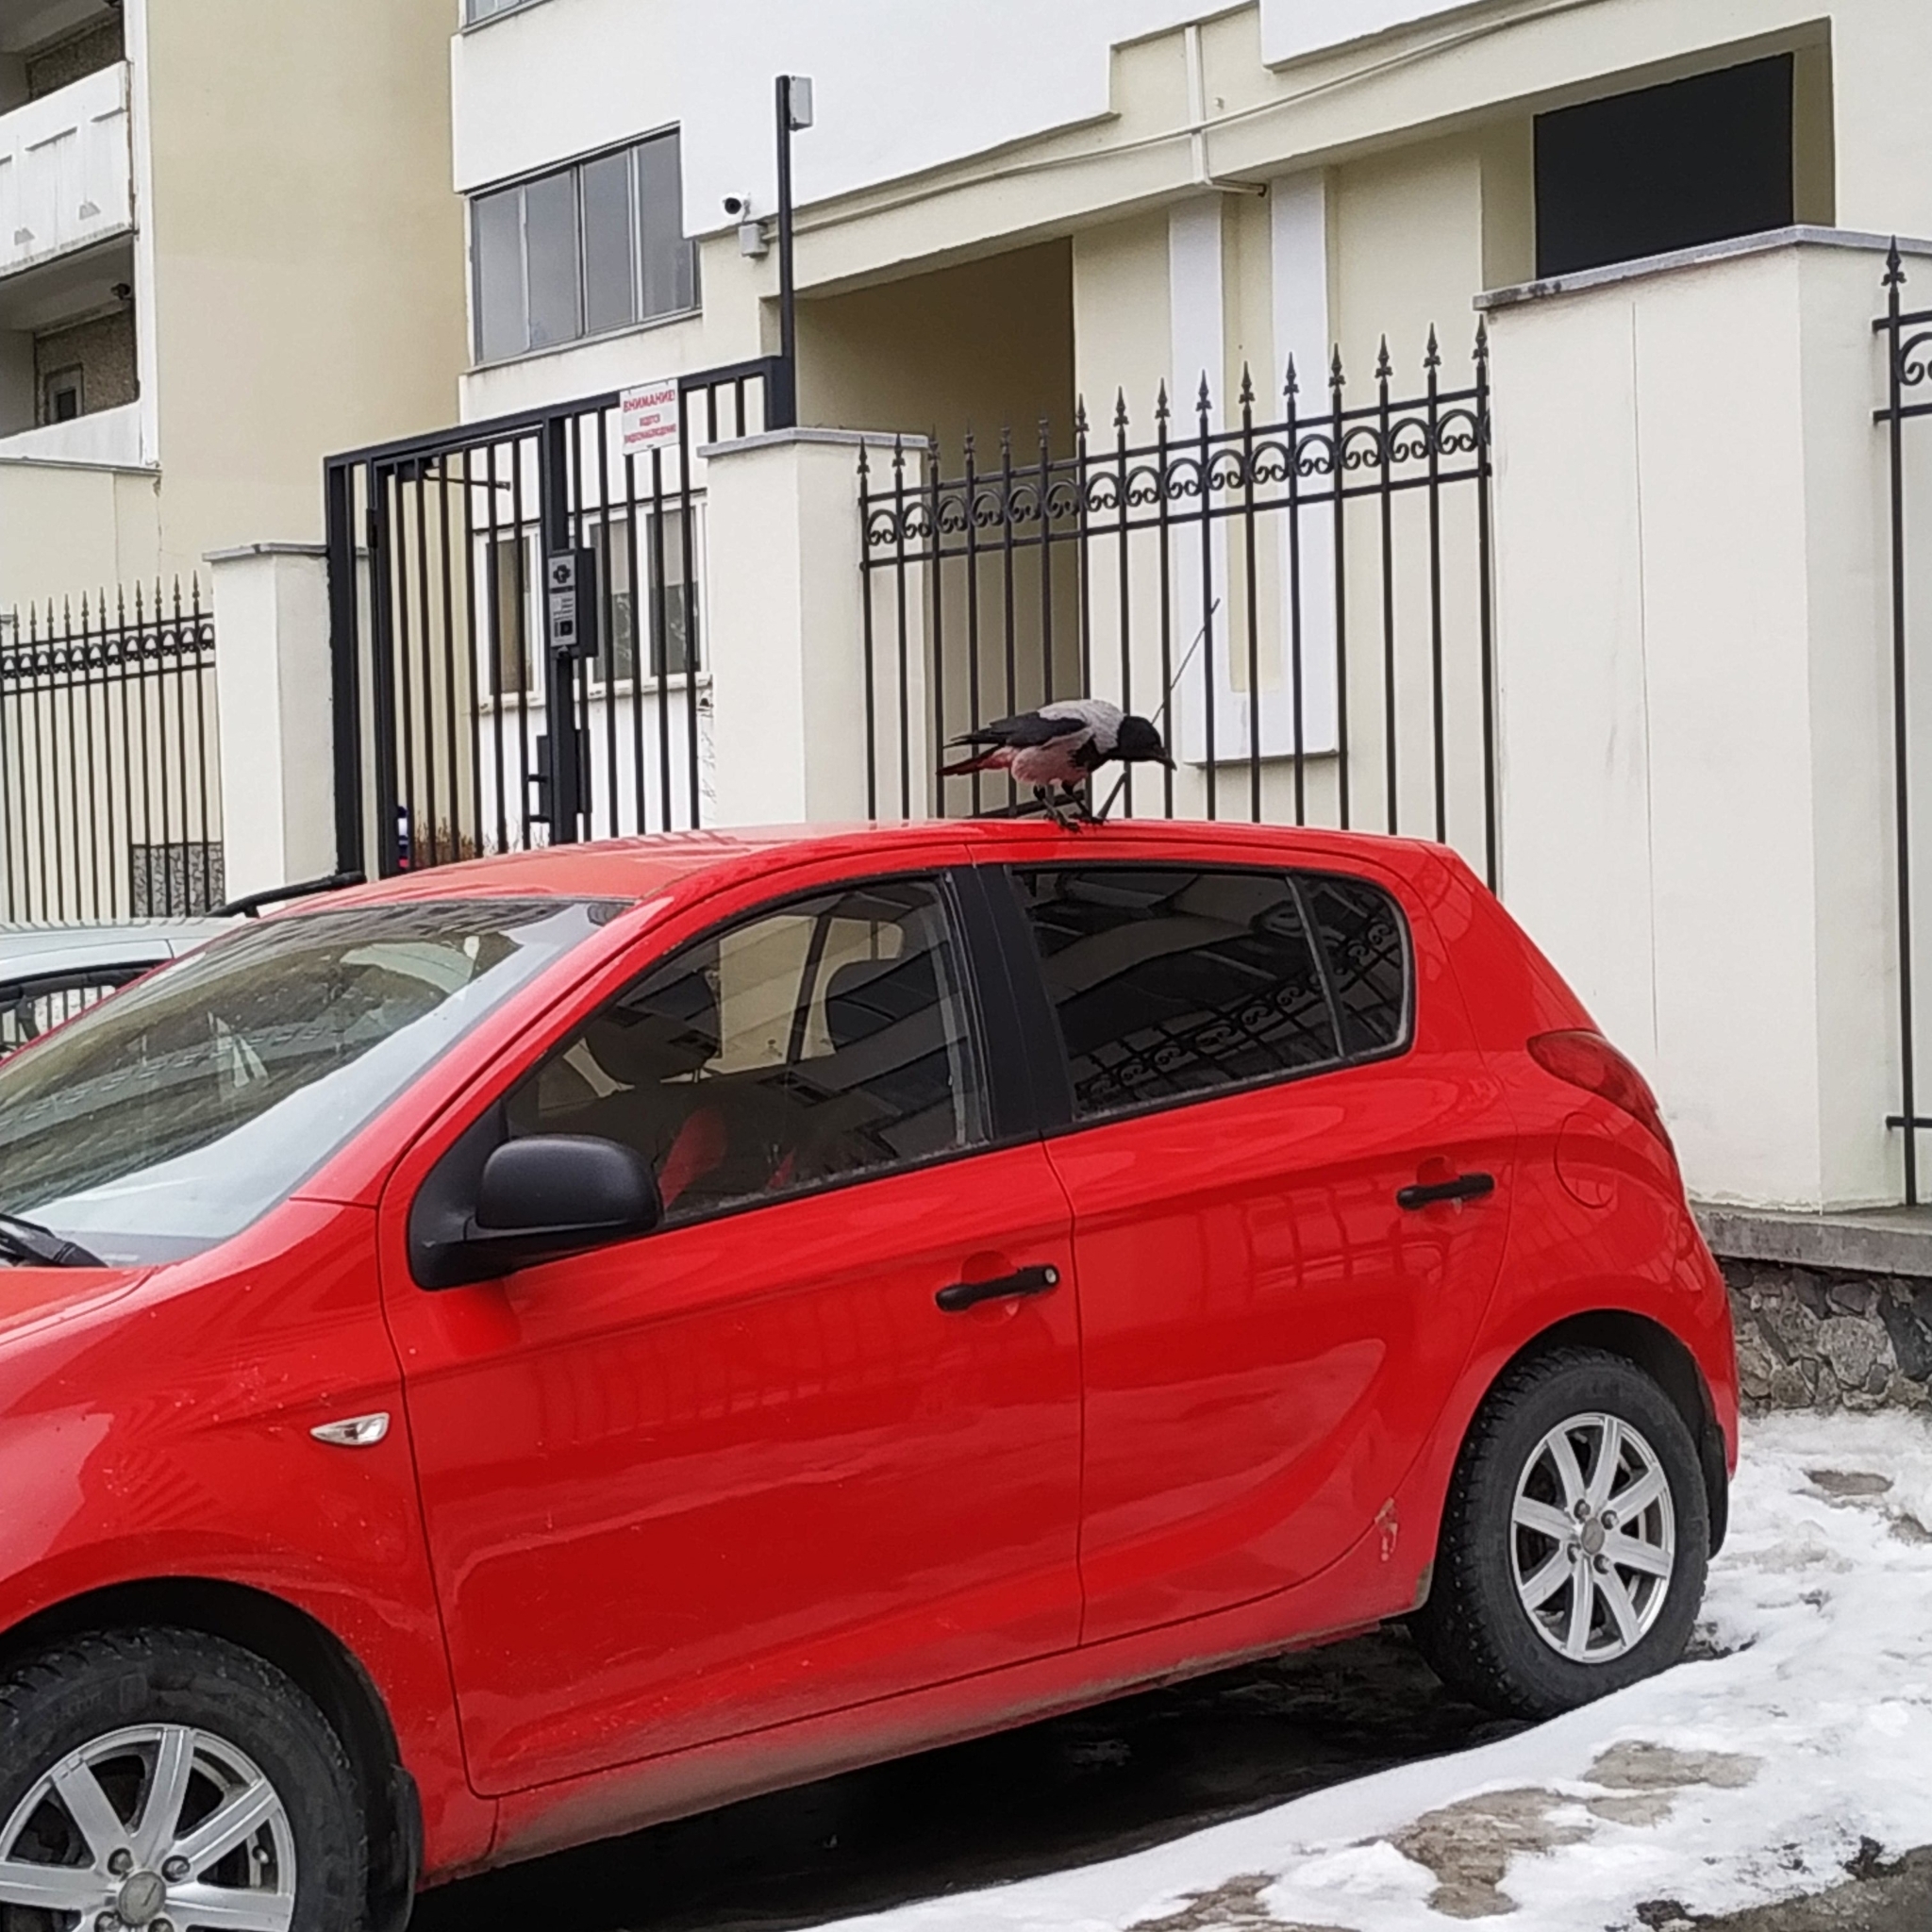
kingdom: Animalia
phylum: Chordata
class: Aves
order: Passeriformes
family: Corvidae
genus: Corvus
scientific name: Corvus cornix
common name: Hooded crow
